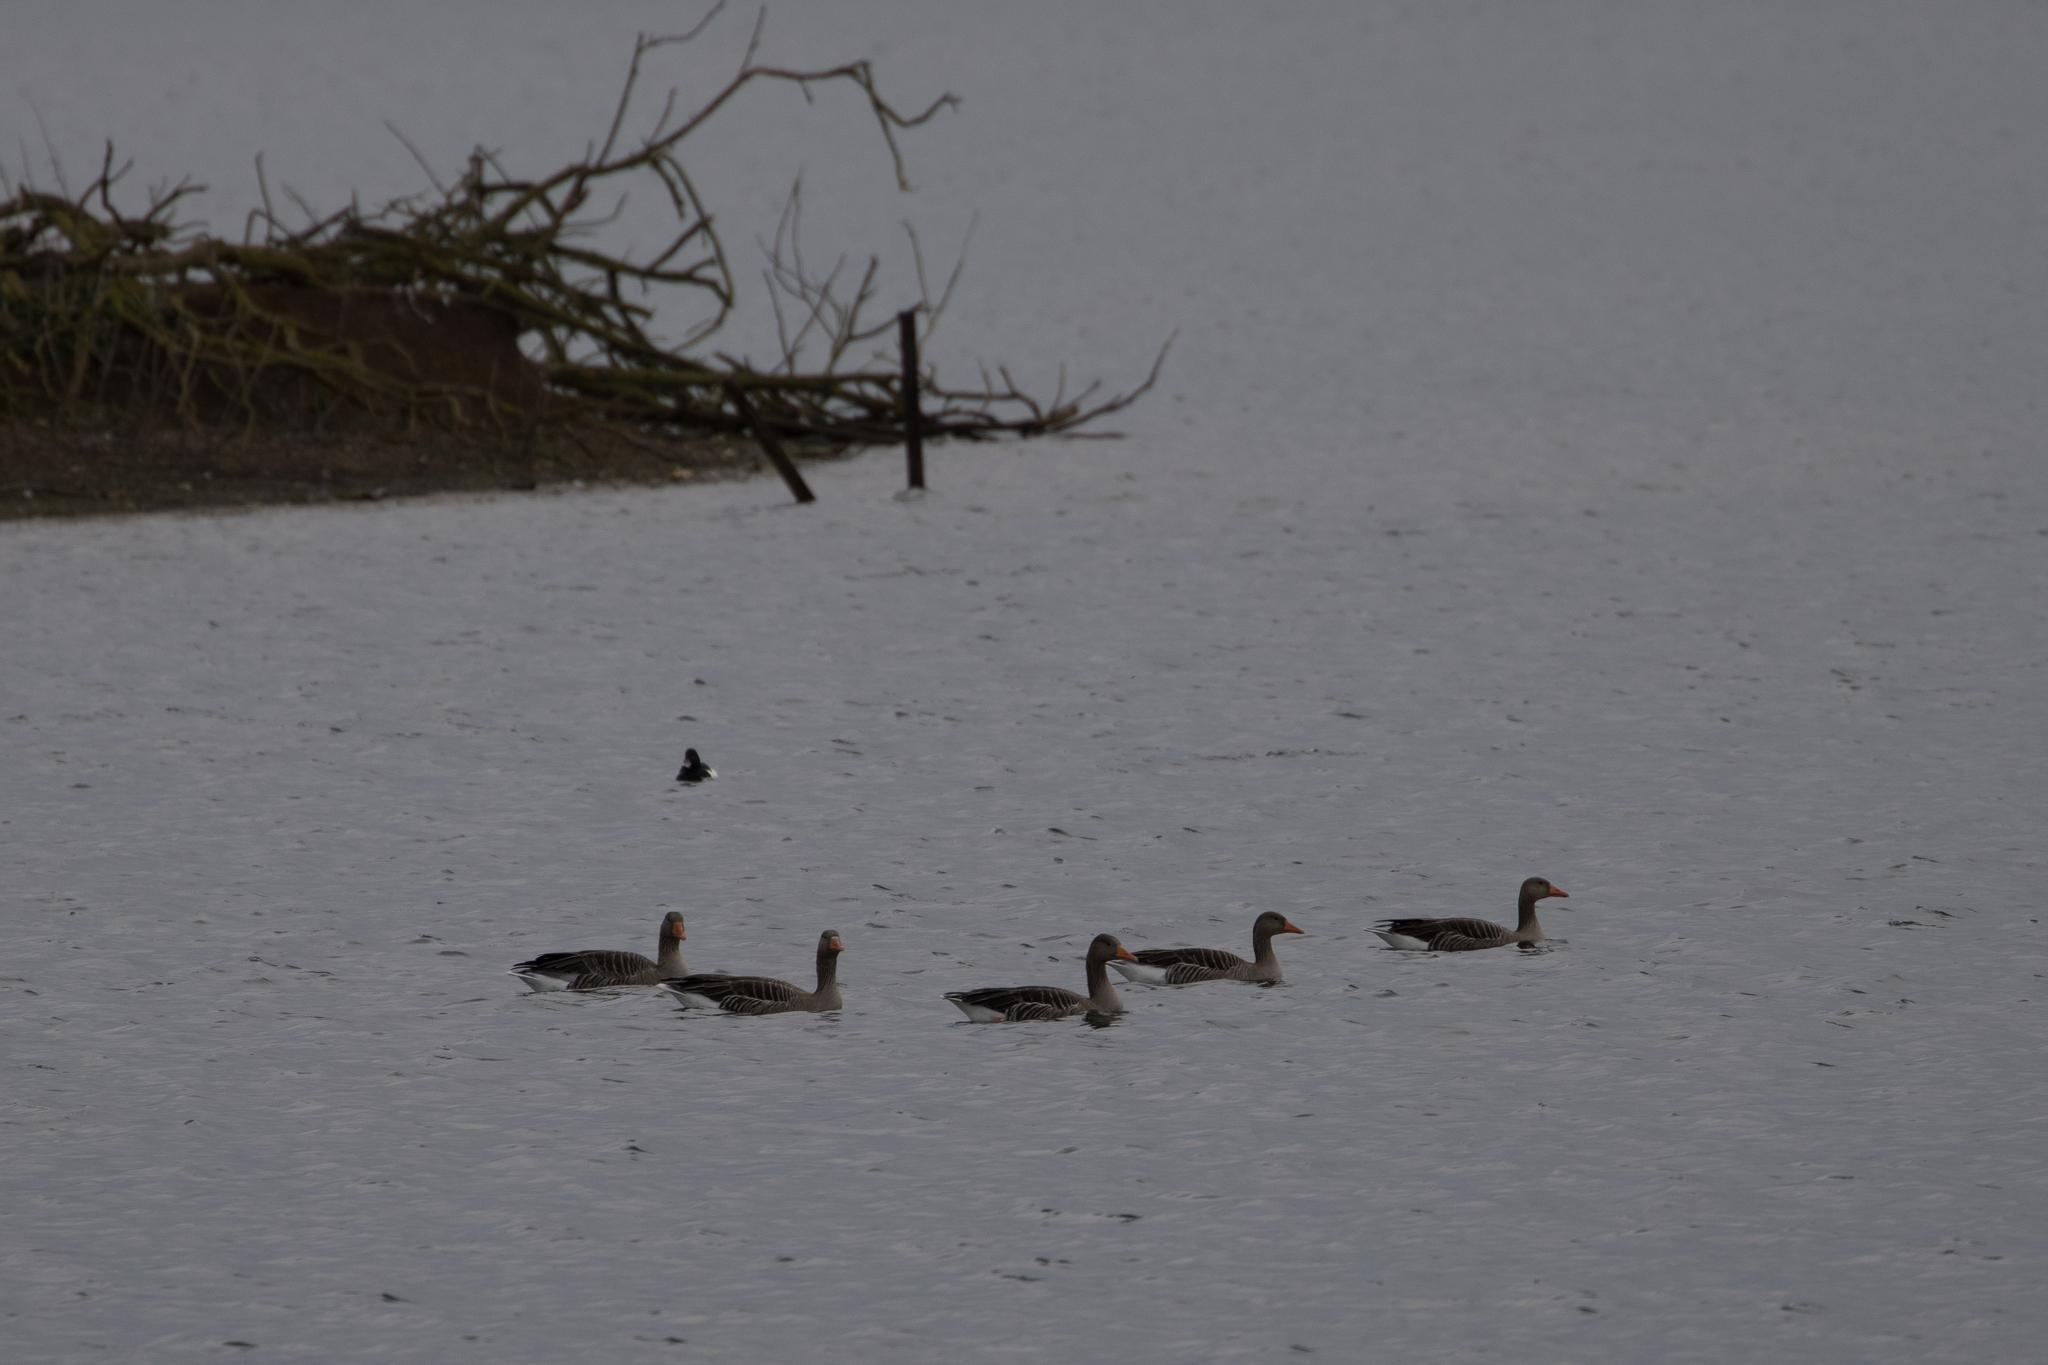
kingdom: Animalia
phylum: Chordata
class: Aves
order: Anseriformes
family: Anatidae
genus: Anser
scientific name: Anser anser
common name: Greylag goose
